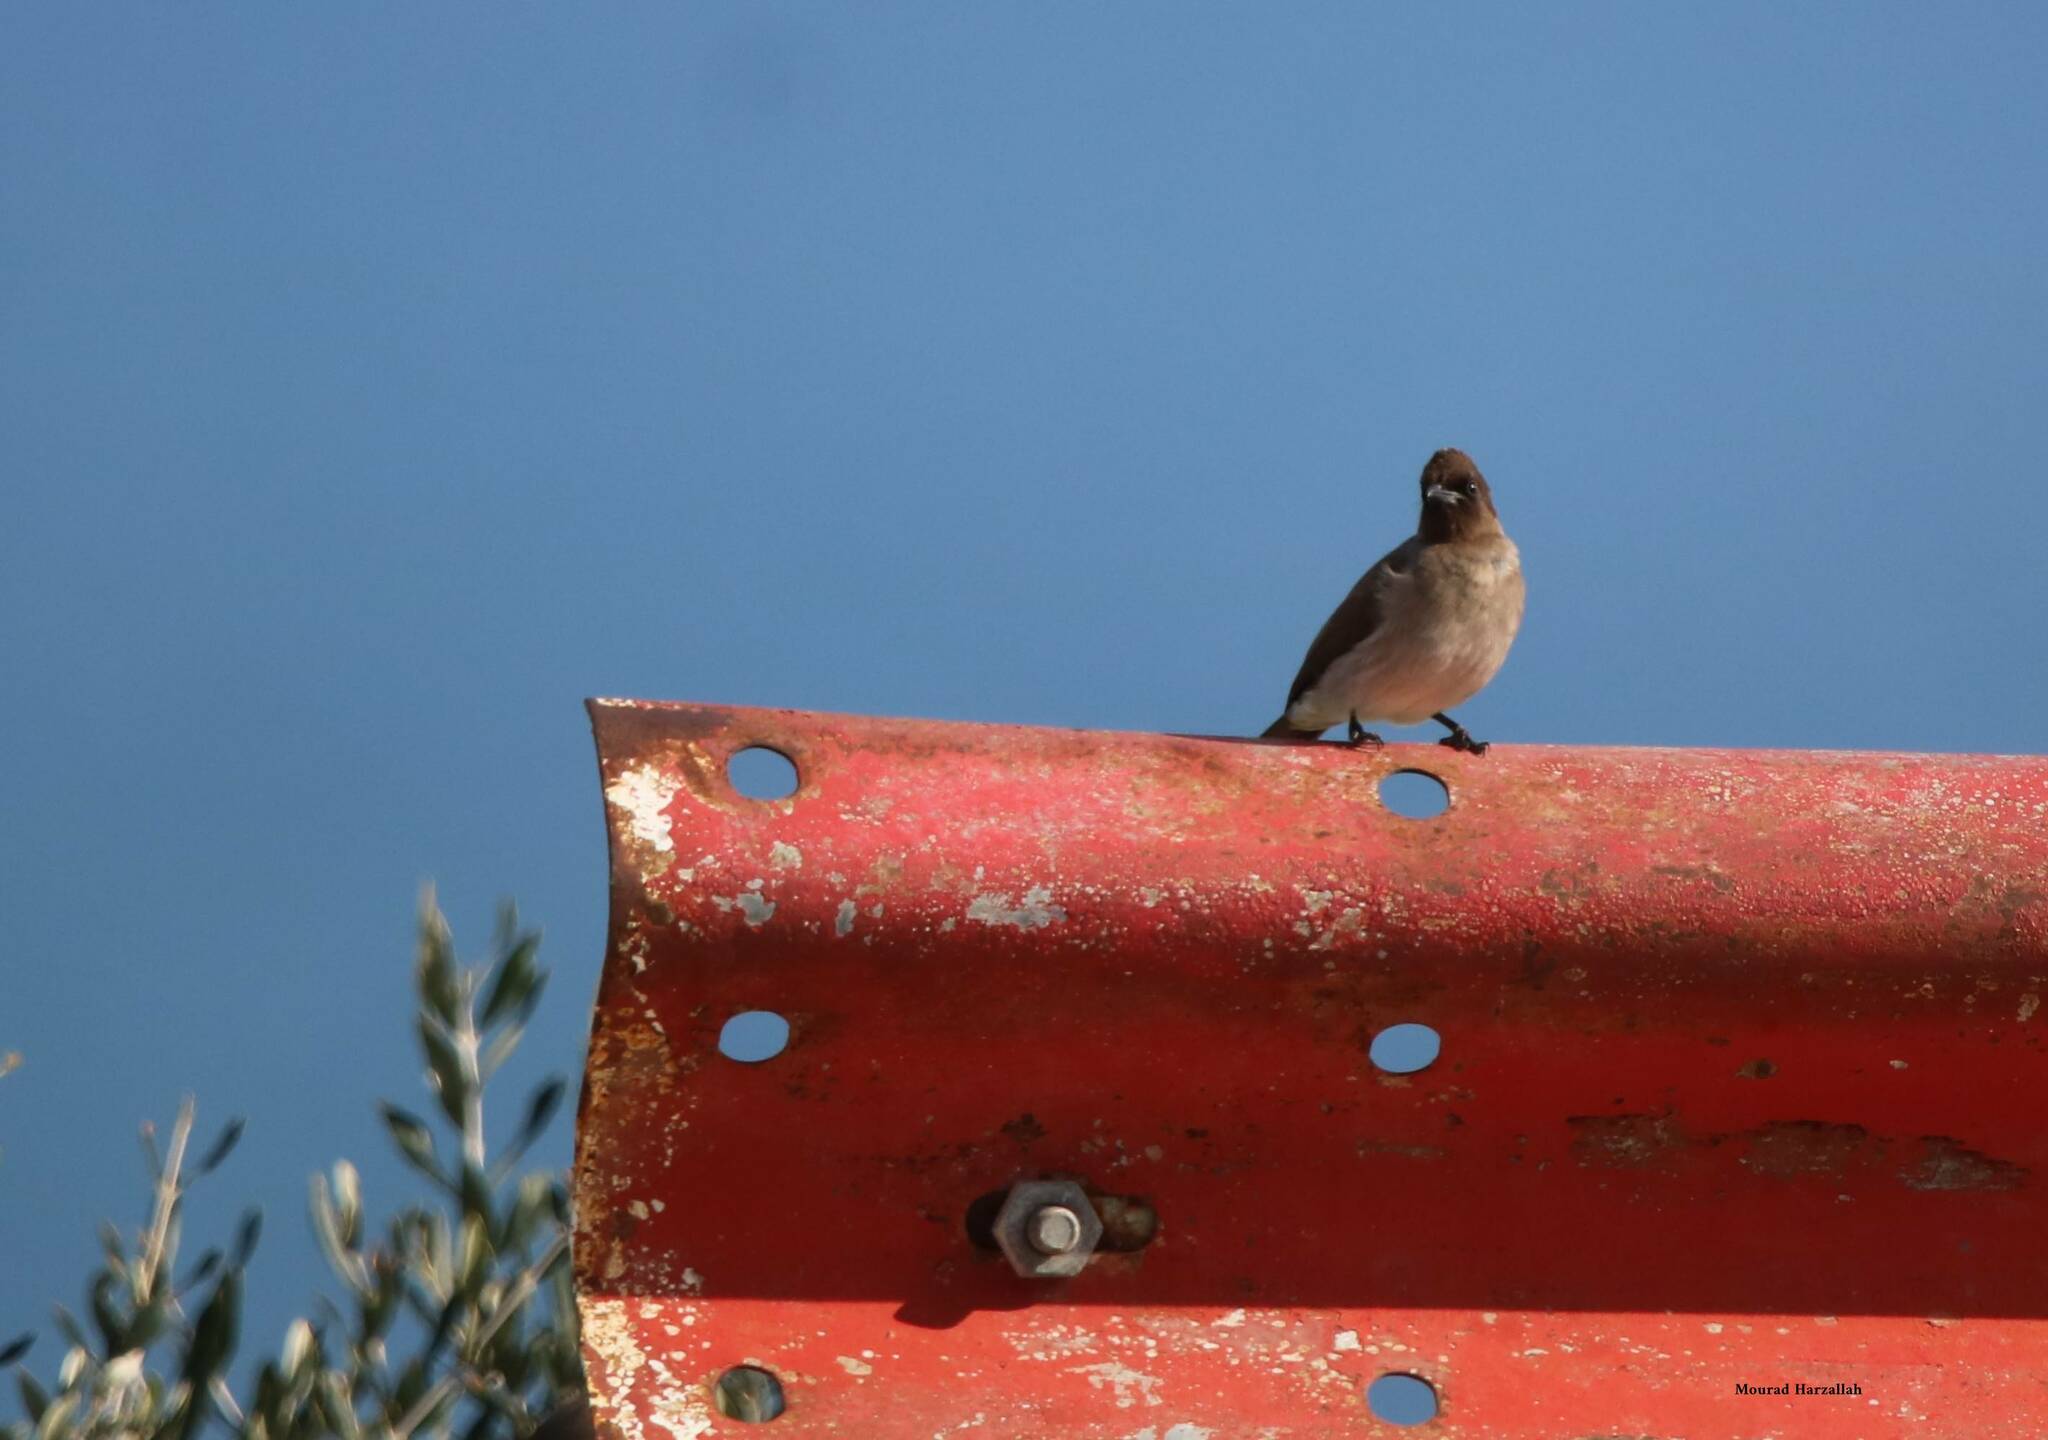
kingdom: Animalia
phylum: Chordata
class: Aves
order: Passeriformes
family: Pycnonotidae
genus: Pycnonotus
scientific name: Pycnonotus barbatus
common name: Common bulbul
